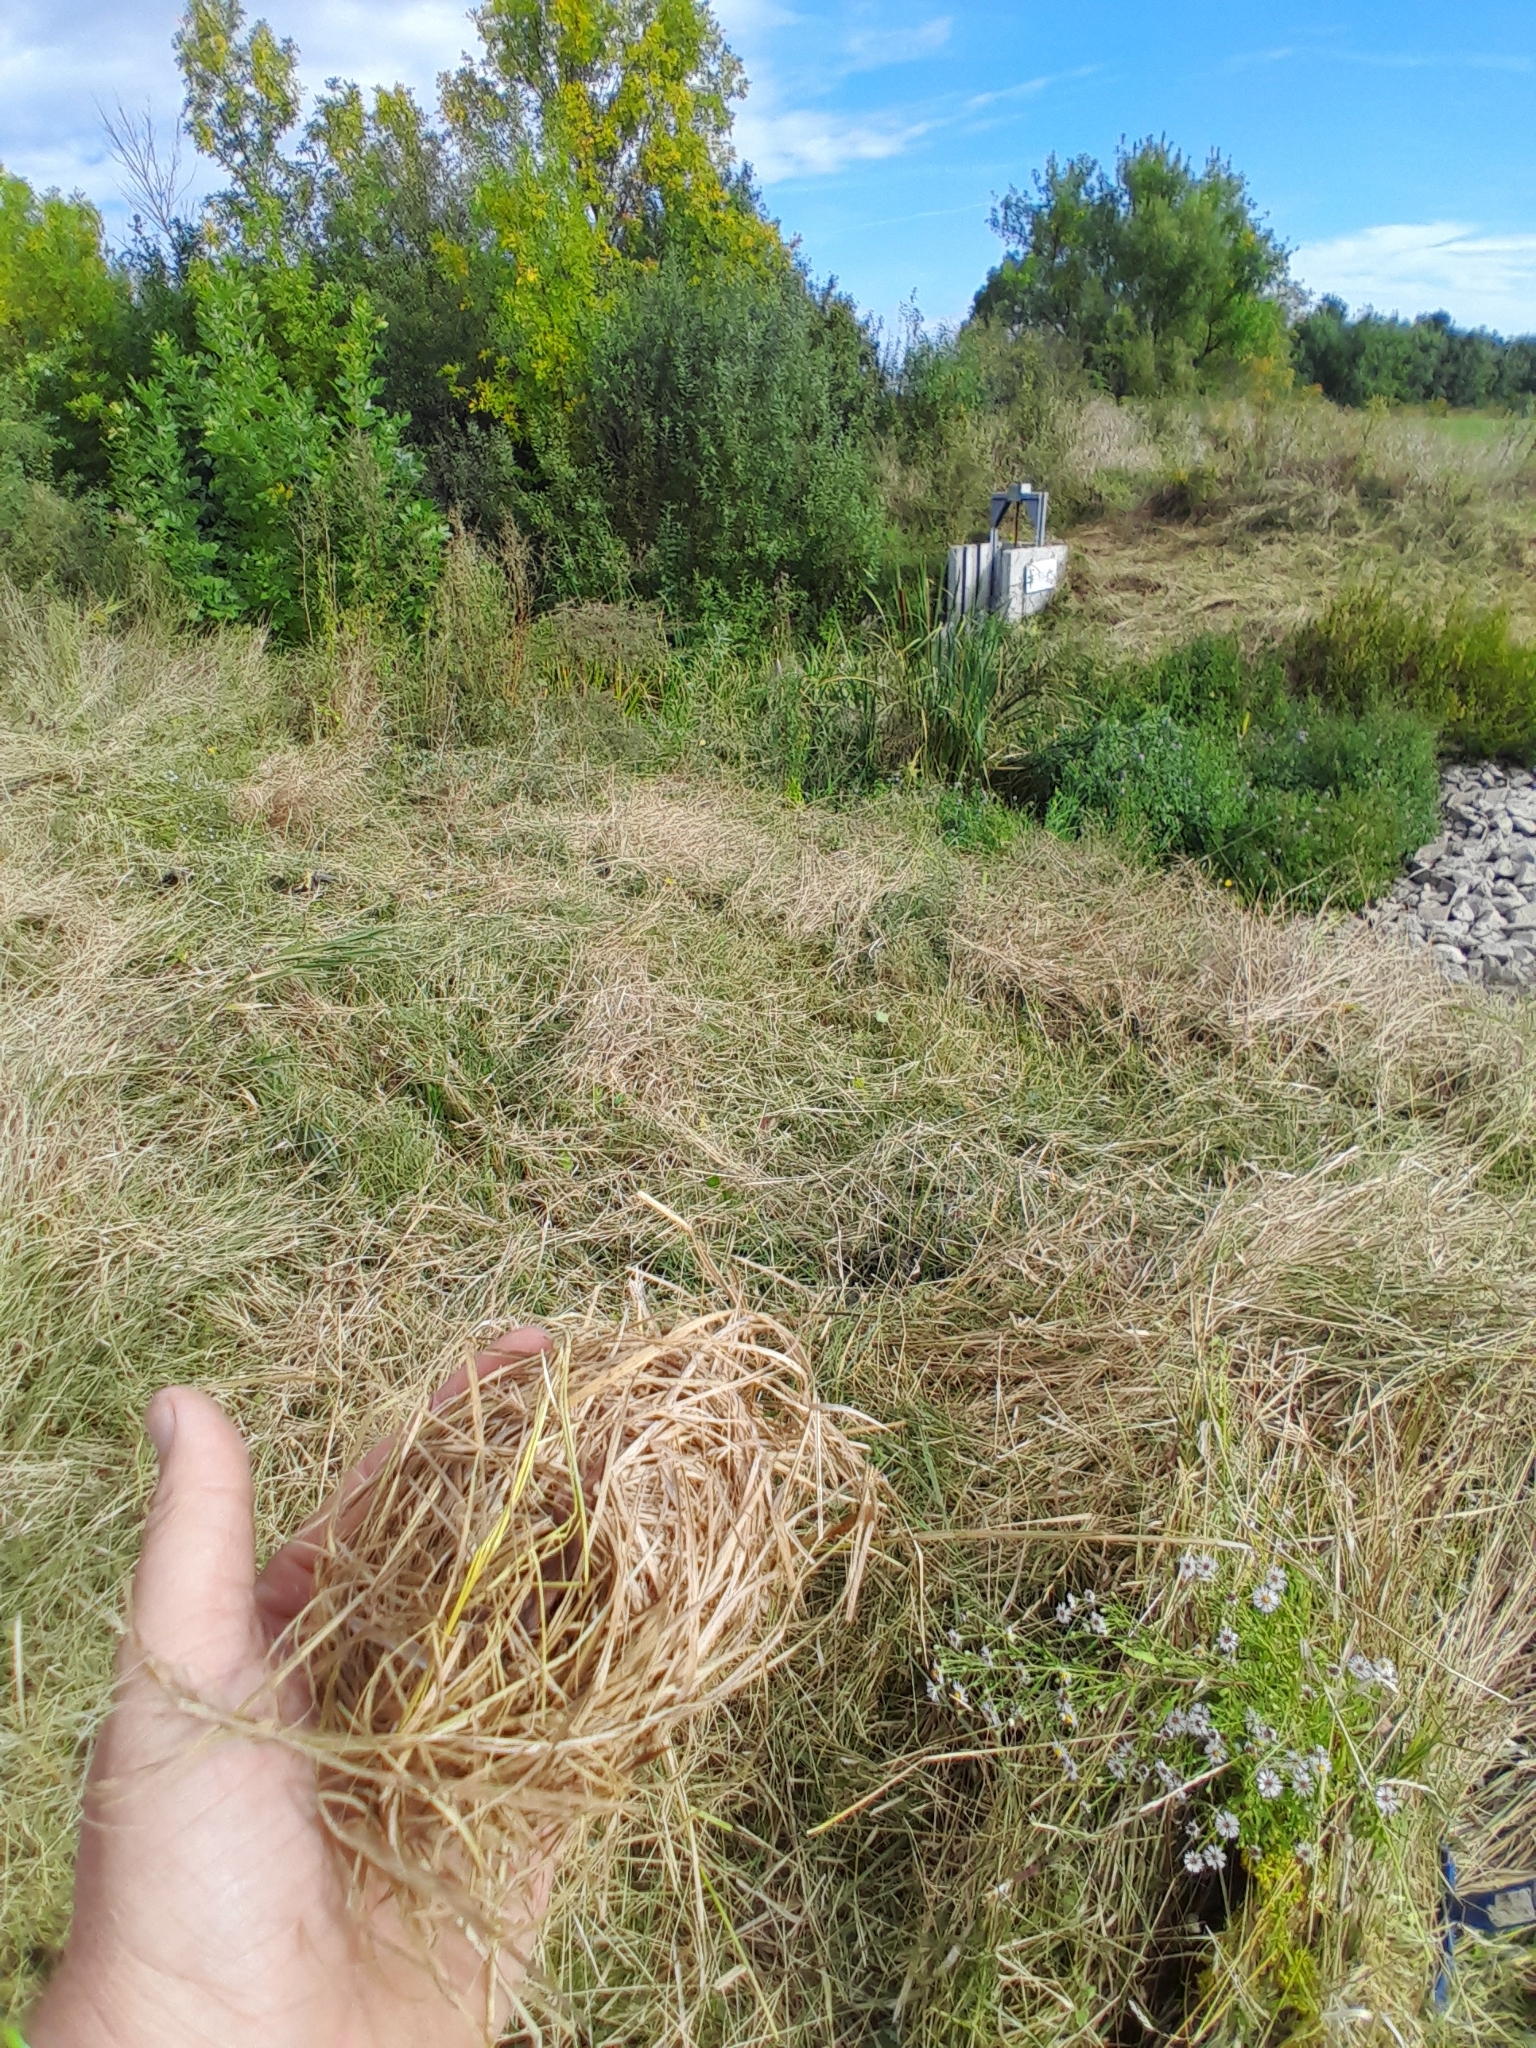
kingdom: Animalia
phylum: Chordata
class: Mammalia
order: Rodentia
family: Muridae
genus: Micromys
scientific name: Micromys minutus
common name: Harvest mouse
